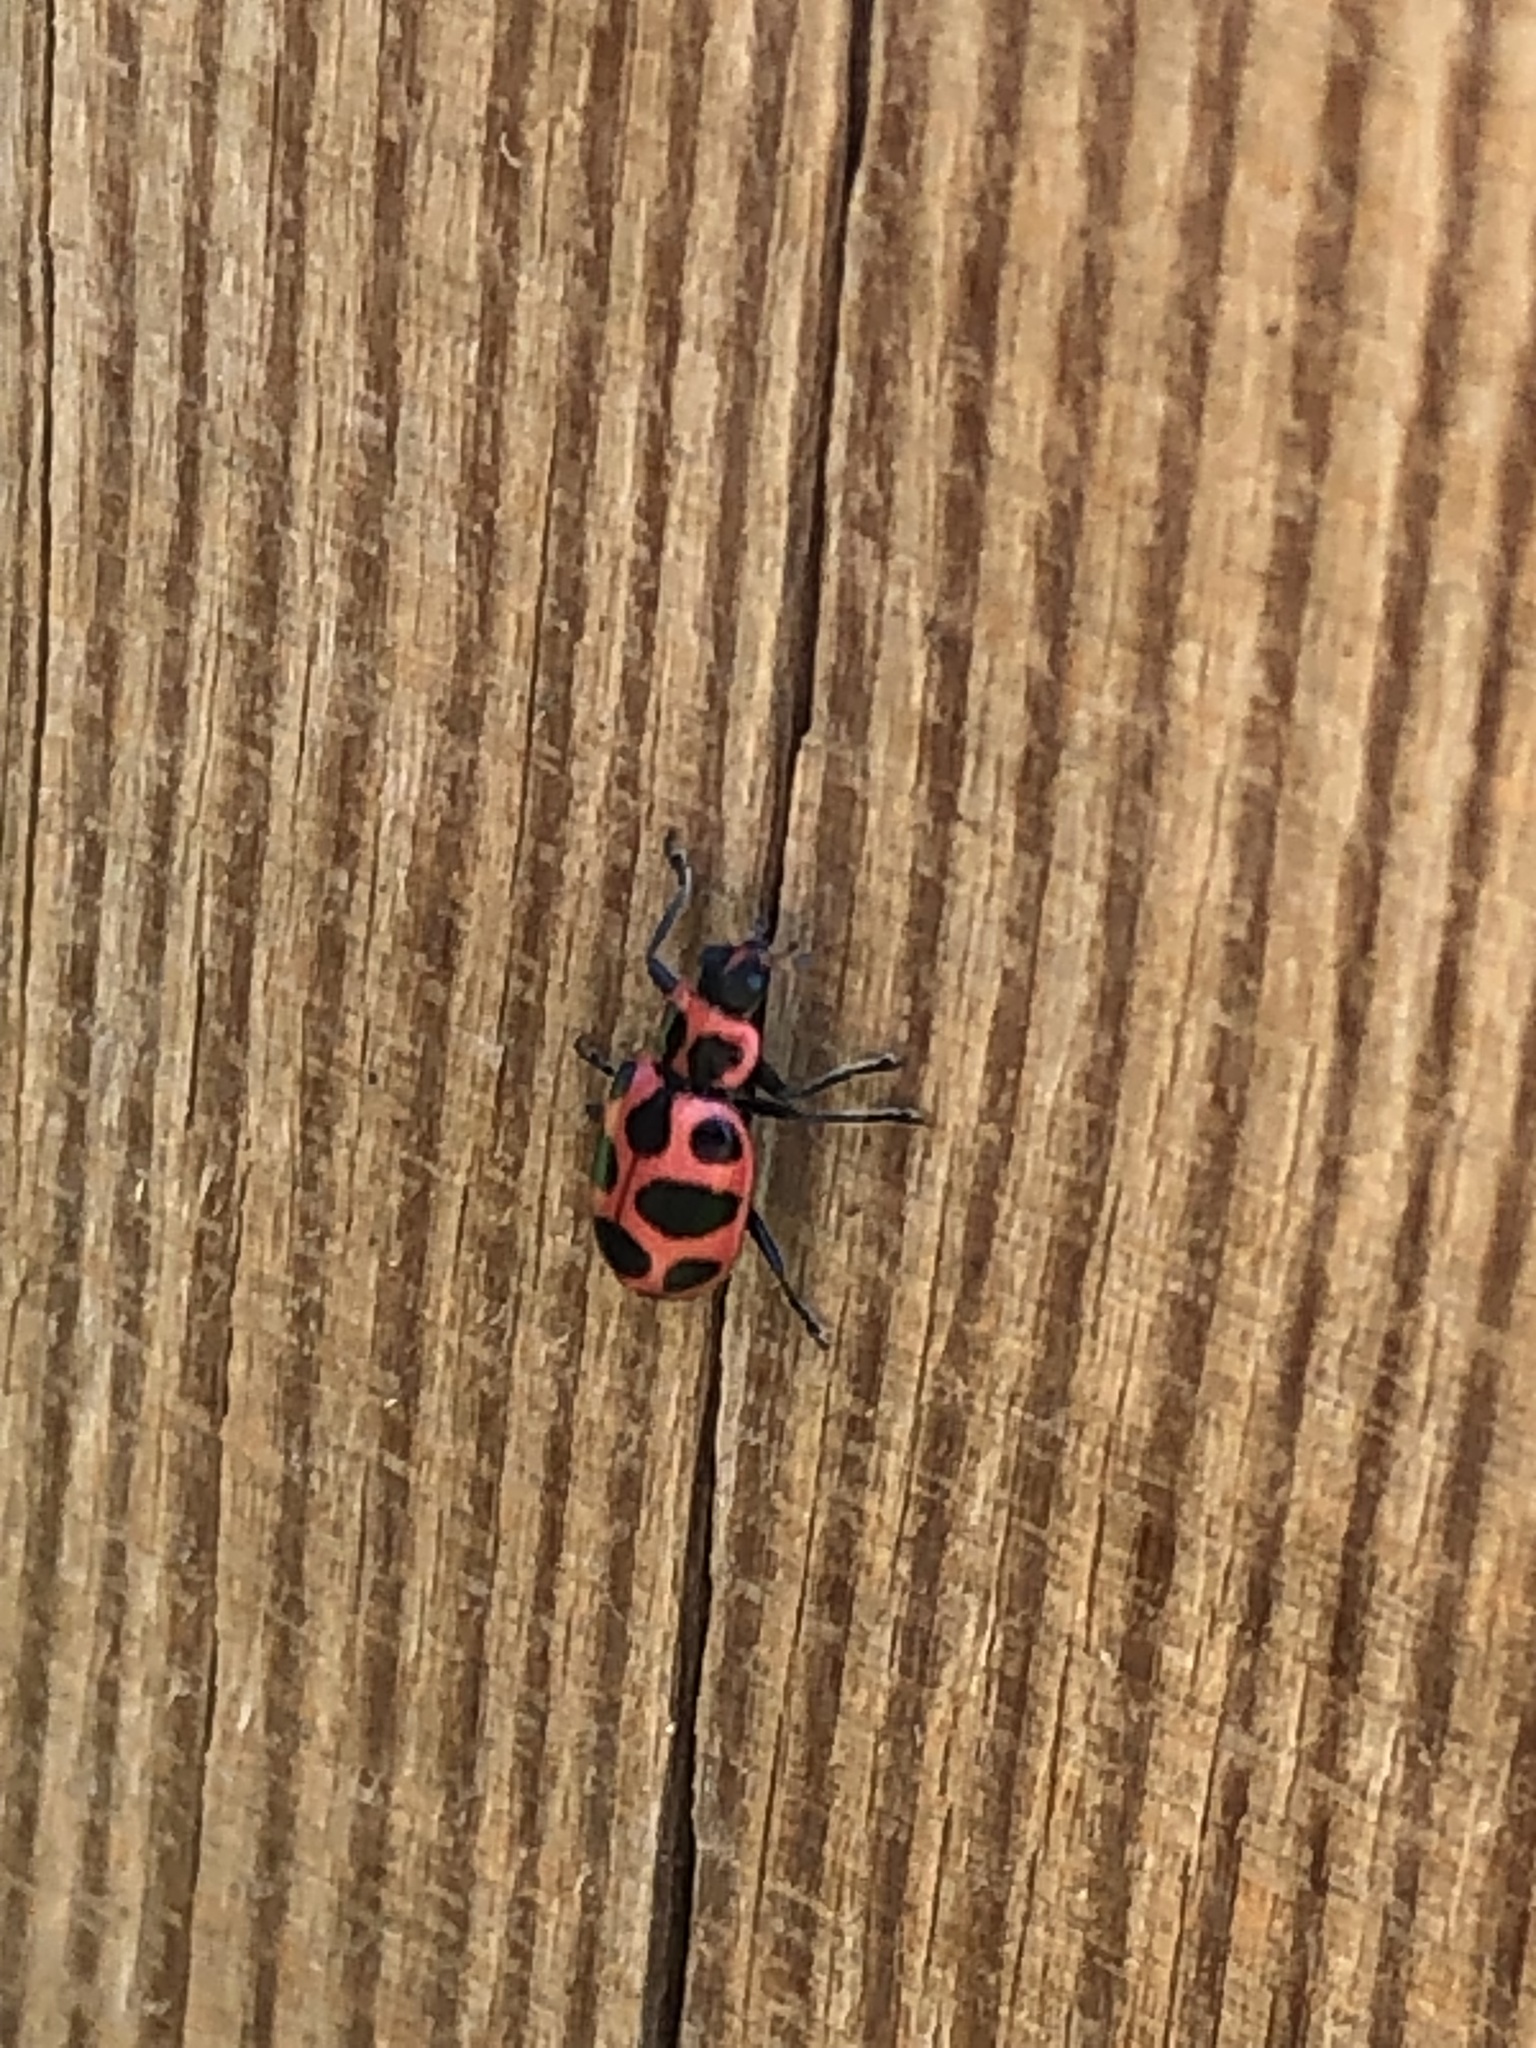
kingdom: Animalia
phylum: Arthropoda
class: Insecta
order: Coleoptera
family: Coccinellidae
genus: Coleomegilla
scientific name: Coleomegilla maculata
